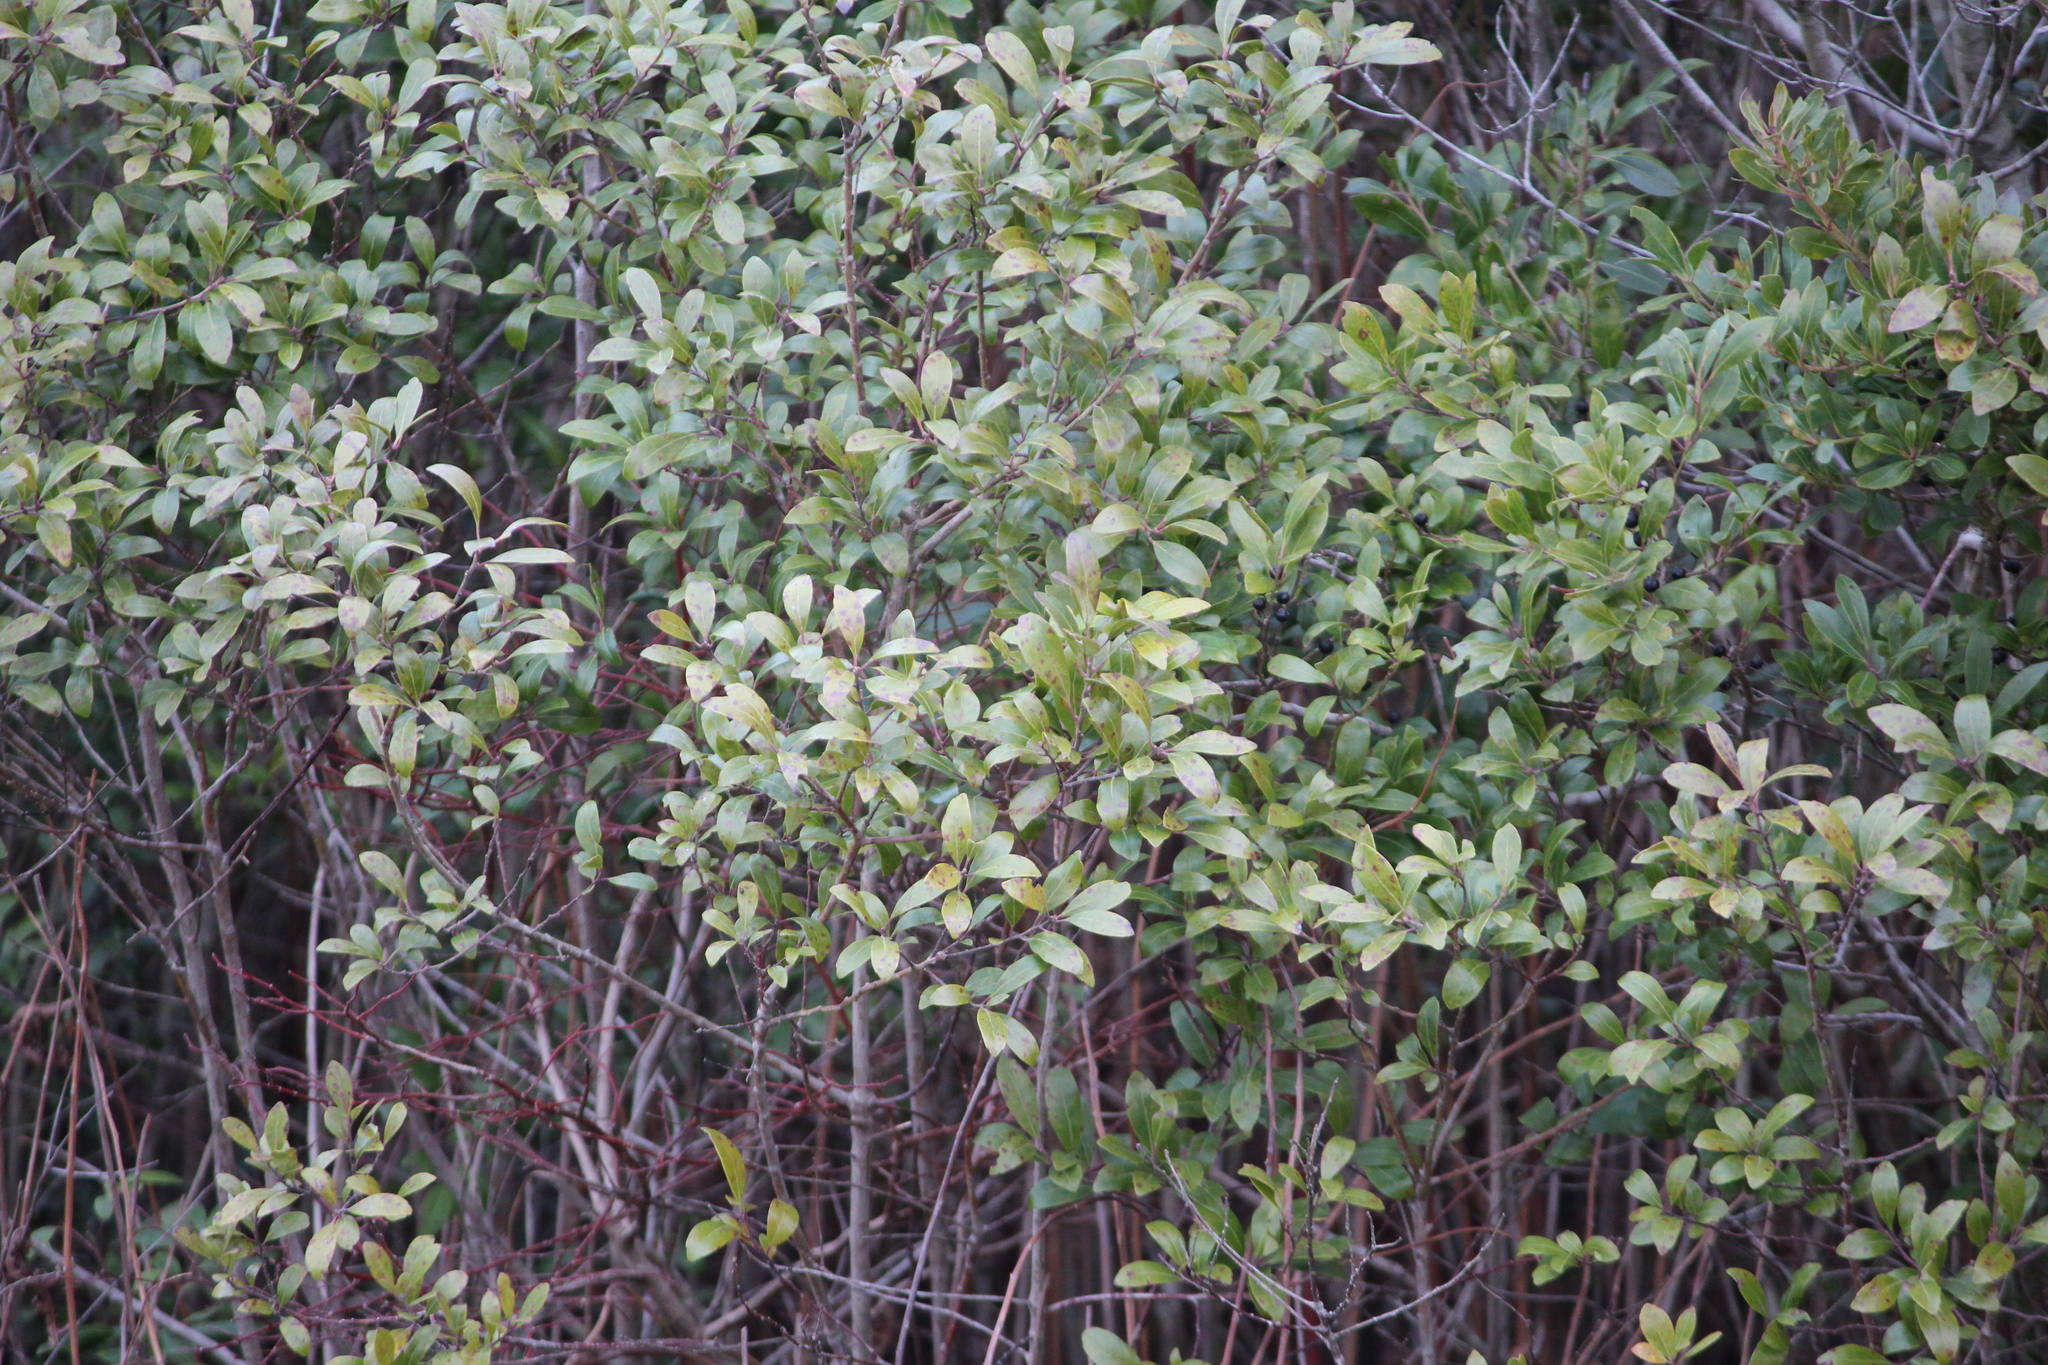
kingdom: Plantae
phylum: Tracheophyta
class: Magnoliopsida
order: Aquifoliales
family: Aquifoliaceae
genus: Ilex
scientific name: Ilex glabra
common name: Bitter gallberry
